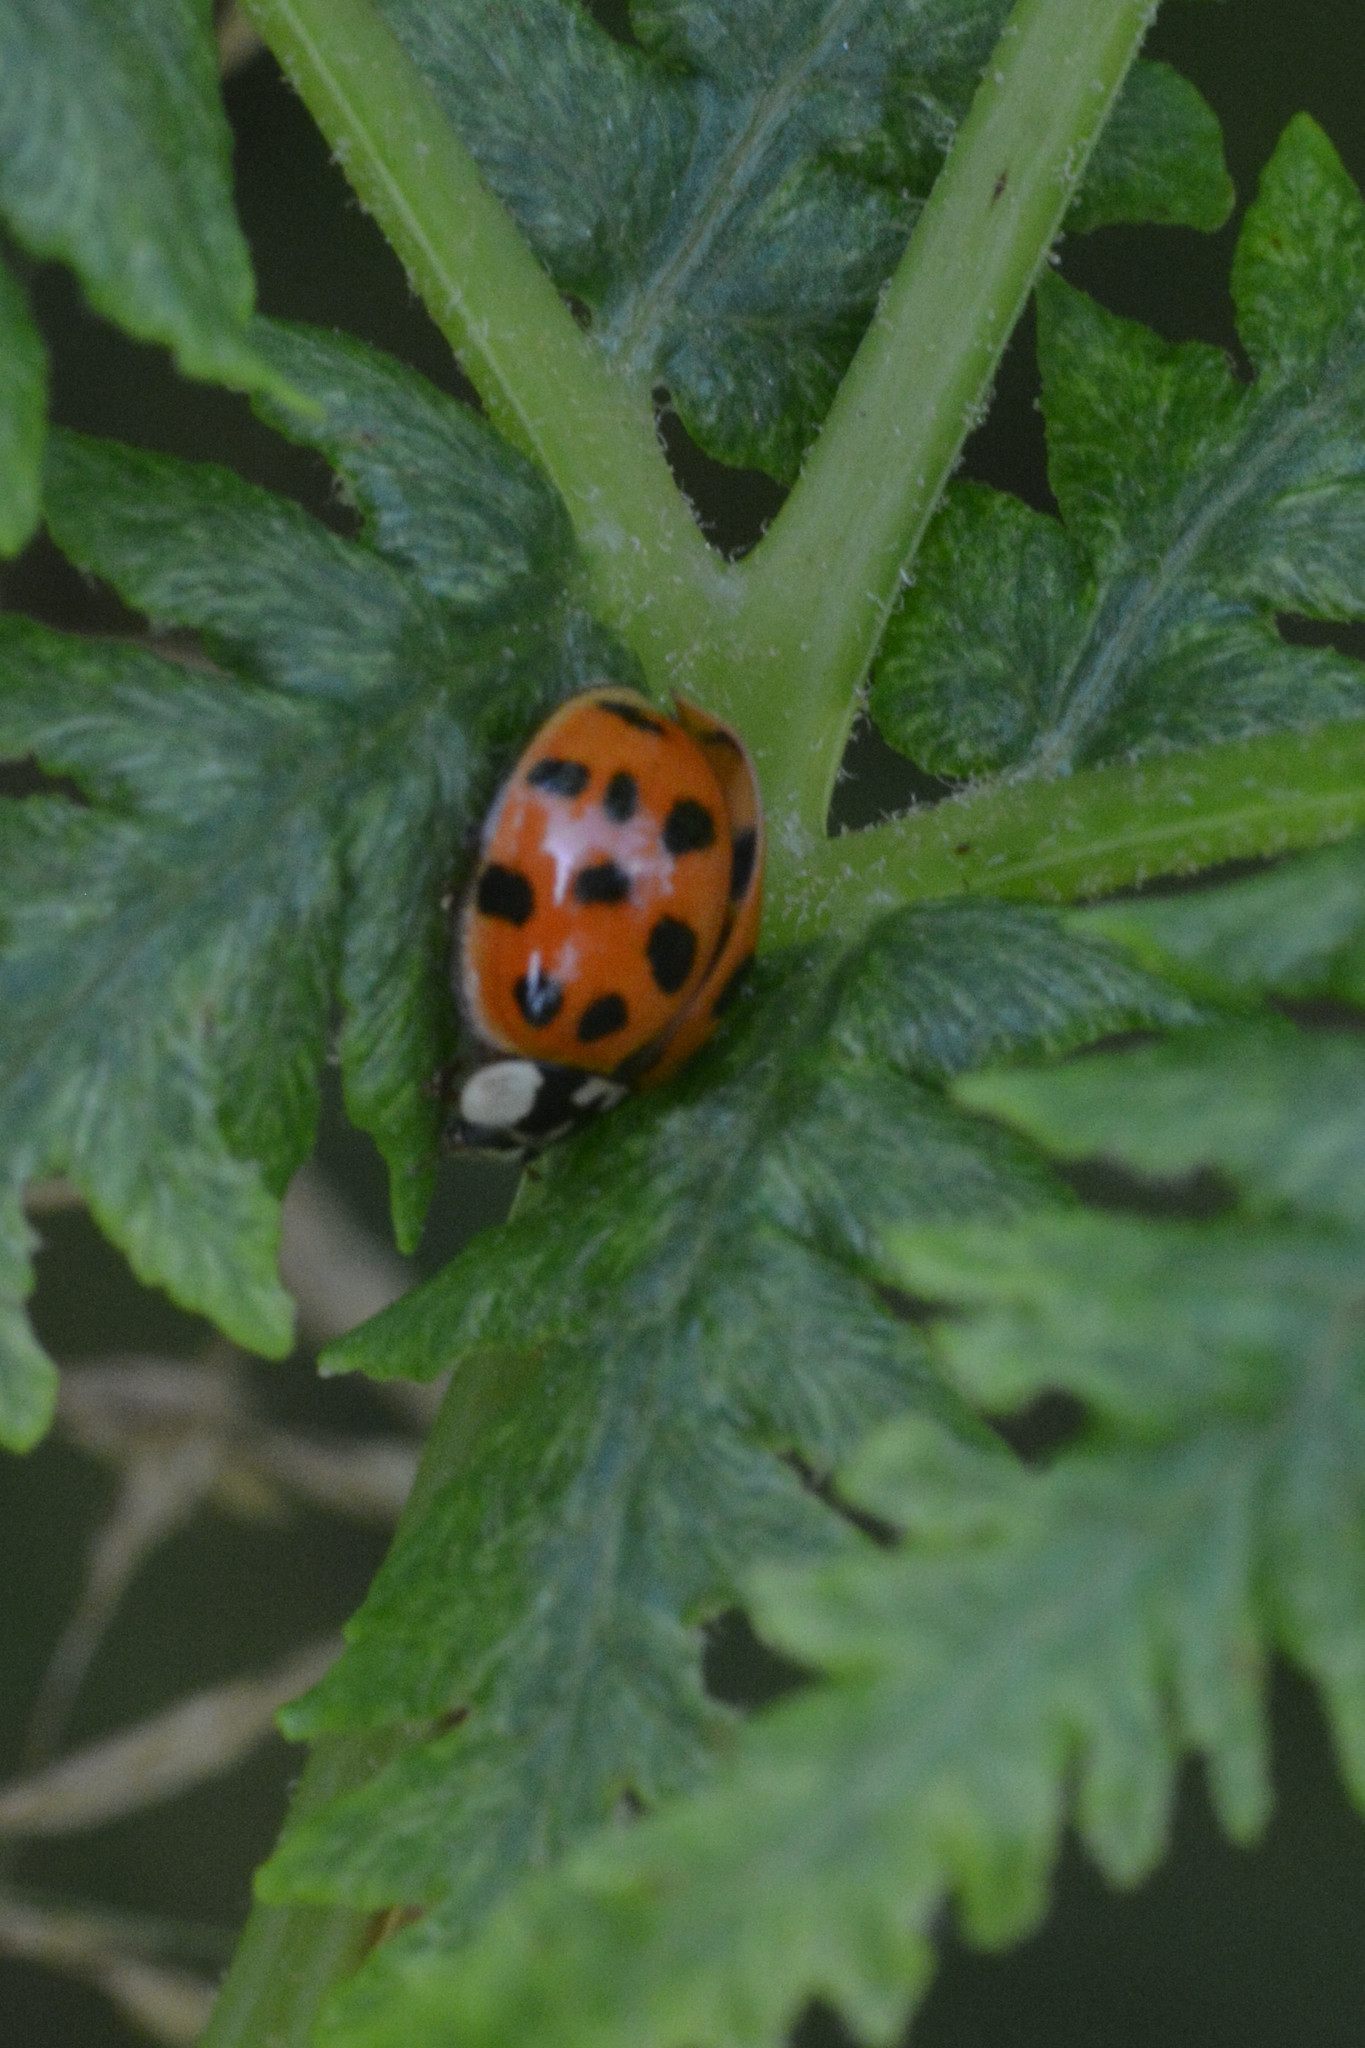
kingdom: Animalia
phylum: Arthropoda
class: Insecta
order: Coleoptera
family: Coccinellidae
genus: Harmonia
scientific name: Harmonia axyridis
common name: Harlequin ladybird
